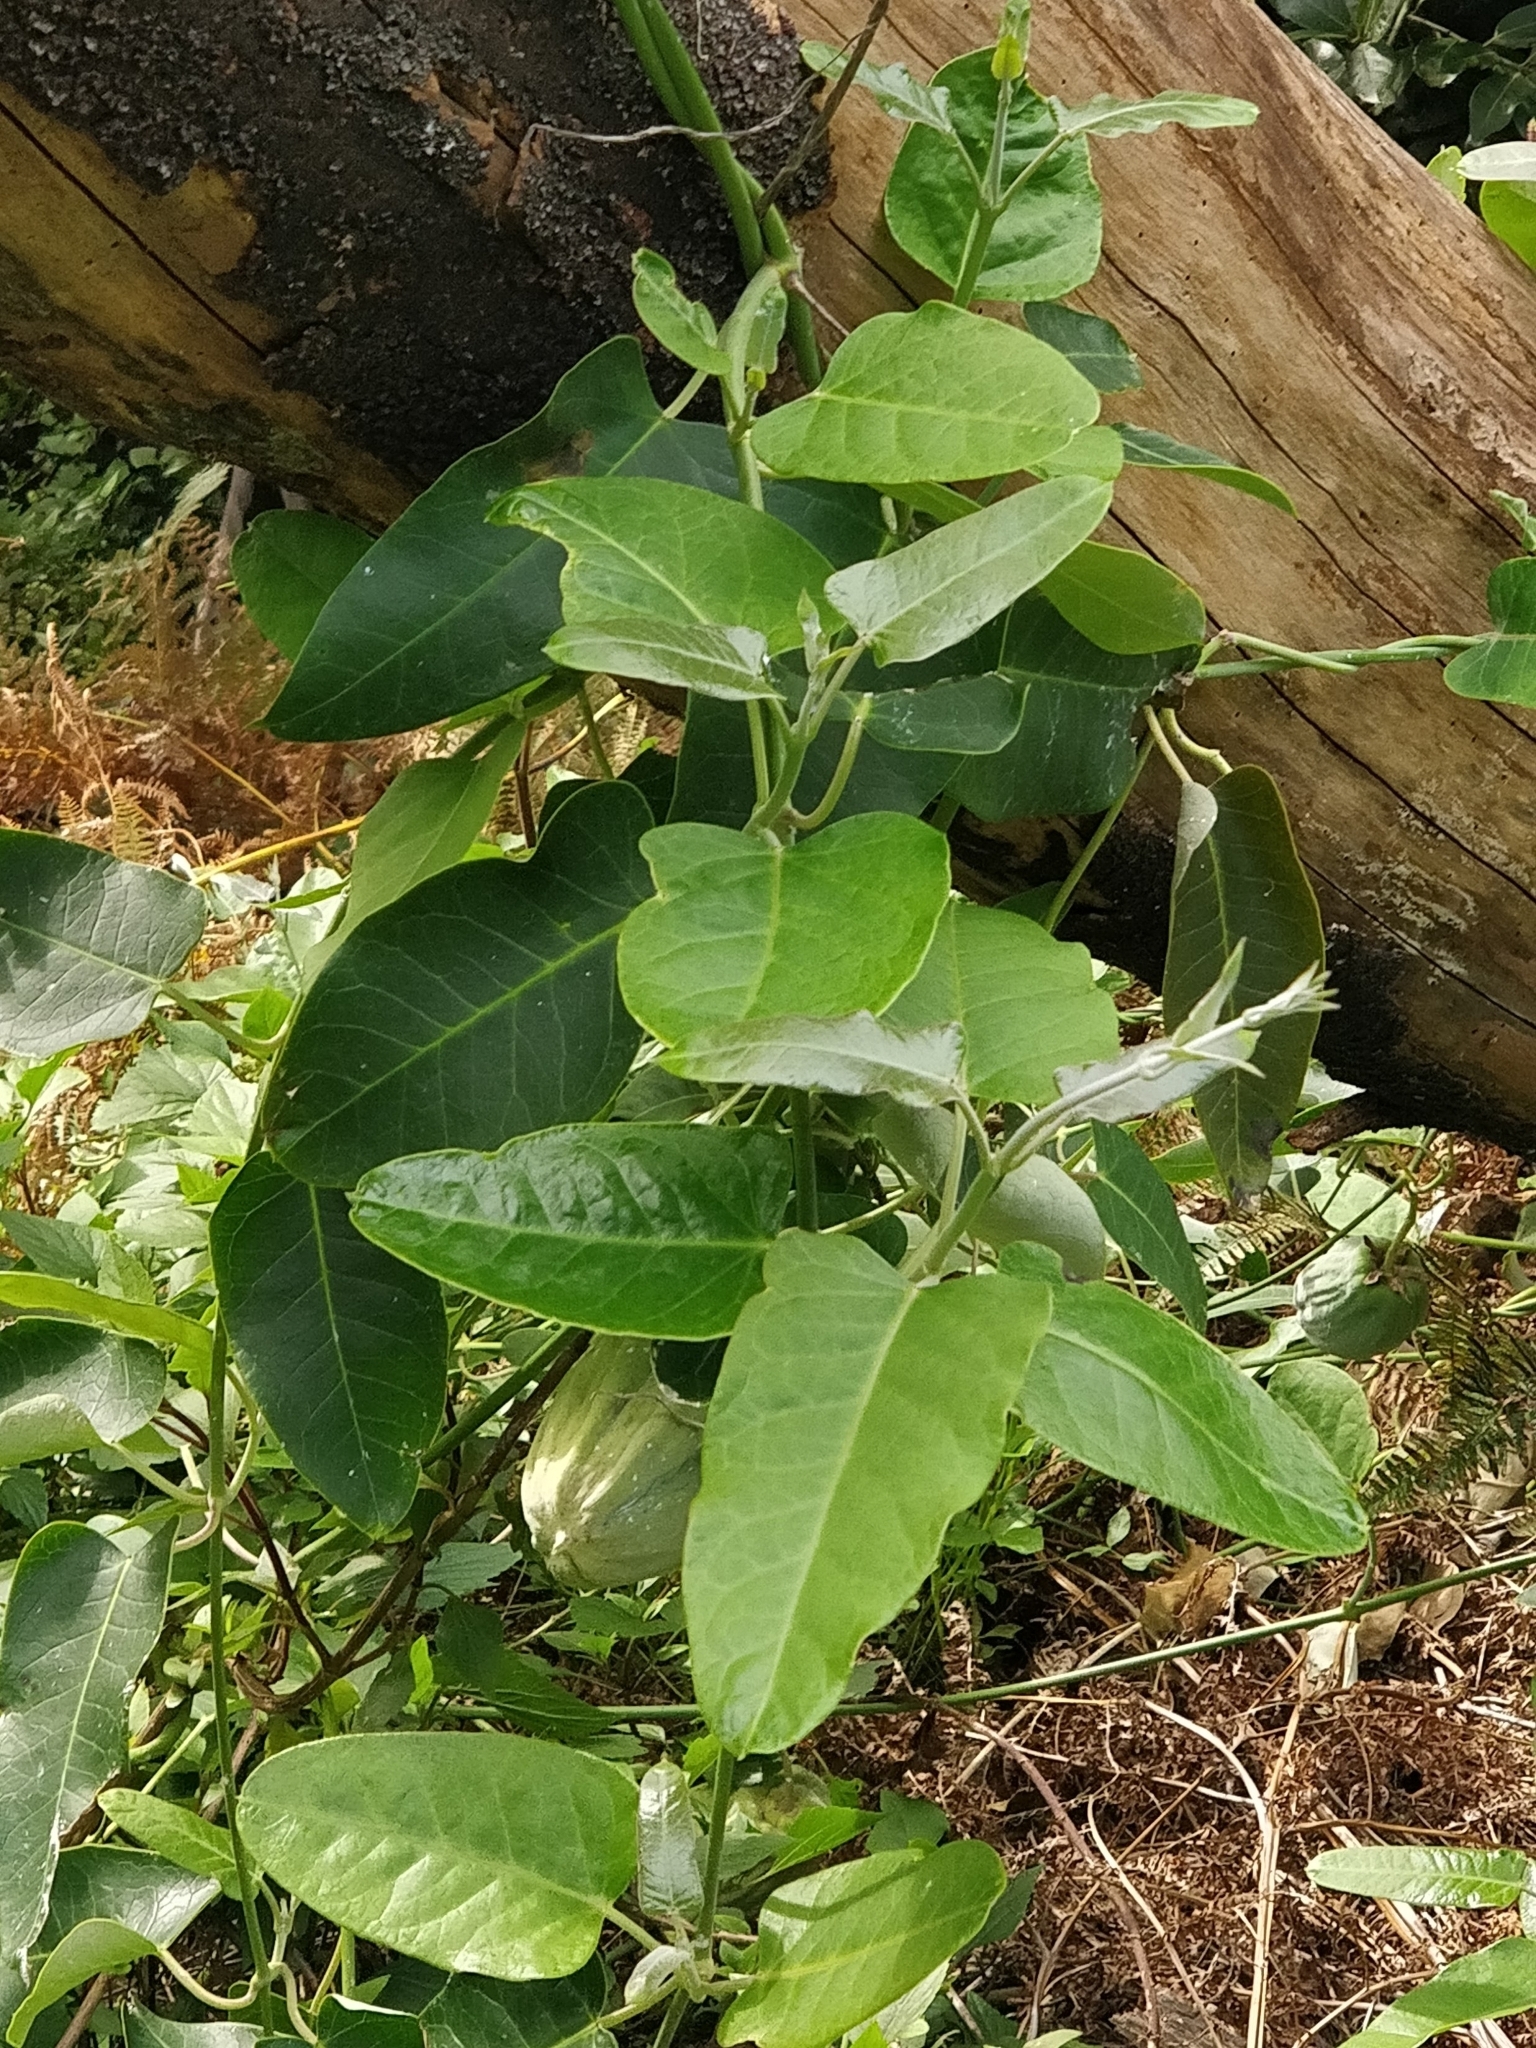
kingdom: Plantae
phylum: Tracheophyta
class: Magnoliopsida
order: Gentianales
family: Apocynaceae
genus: Araujia
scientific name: Araujia sericifera
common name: White bladderflower
